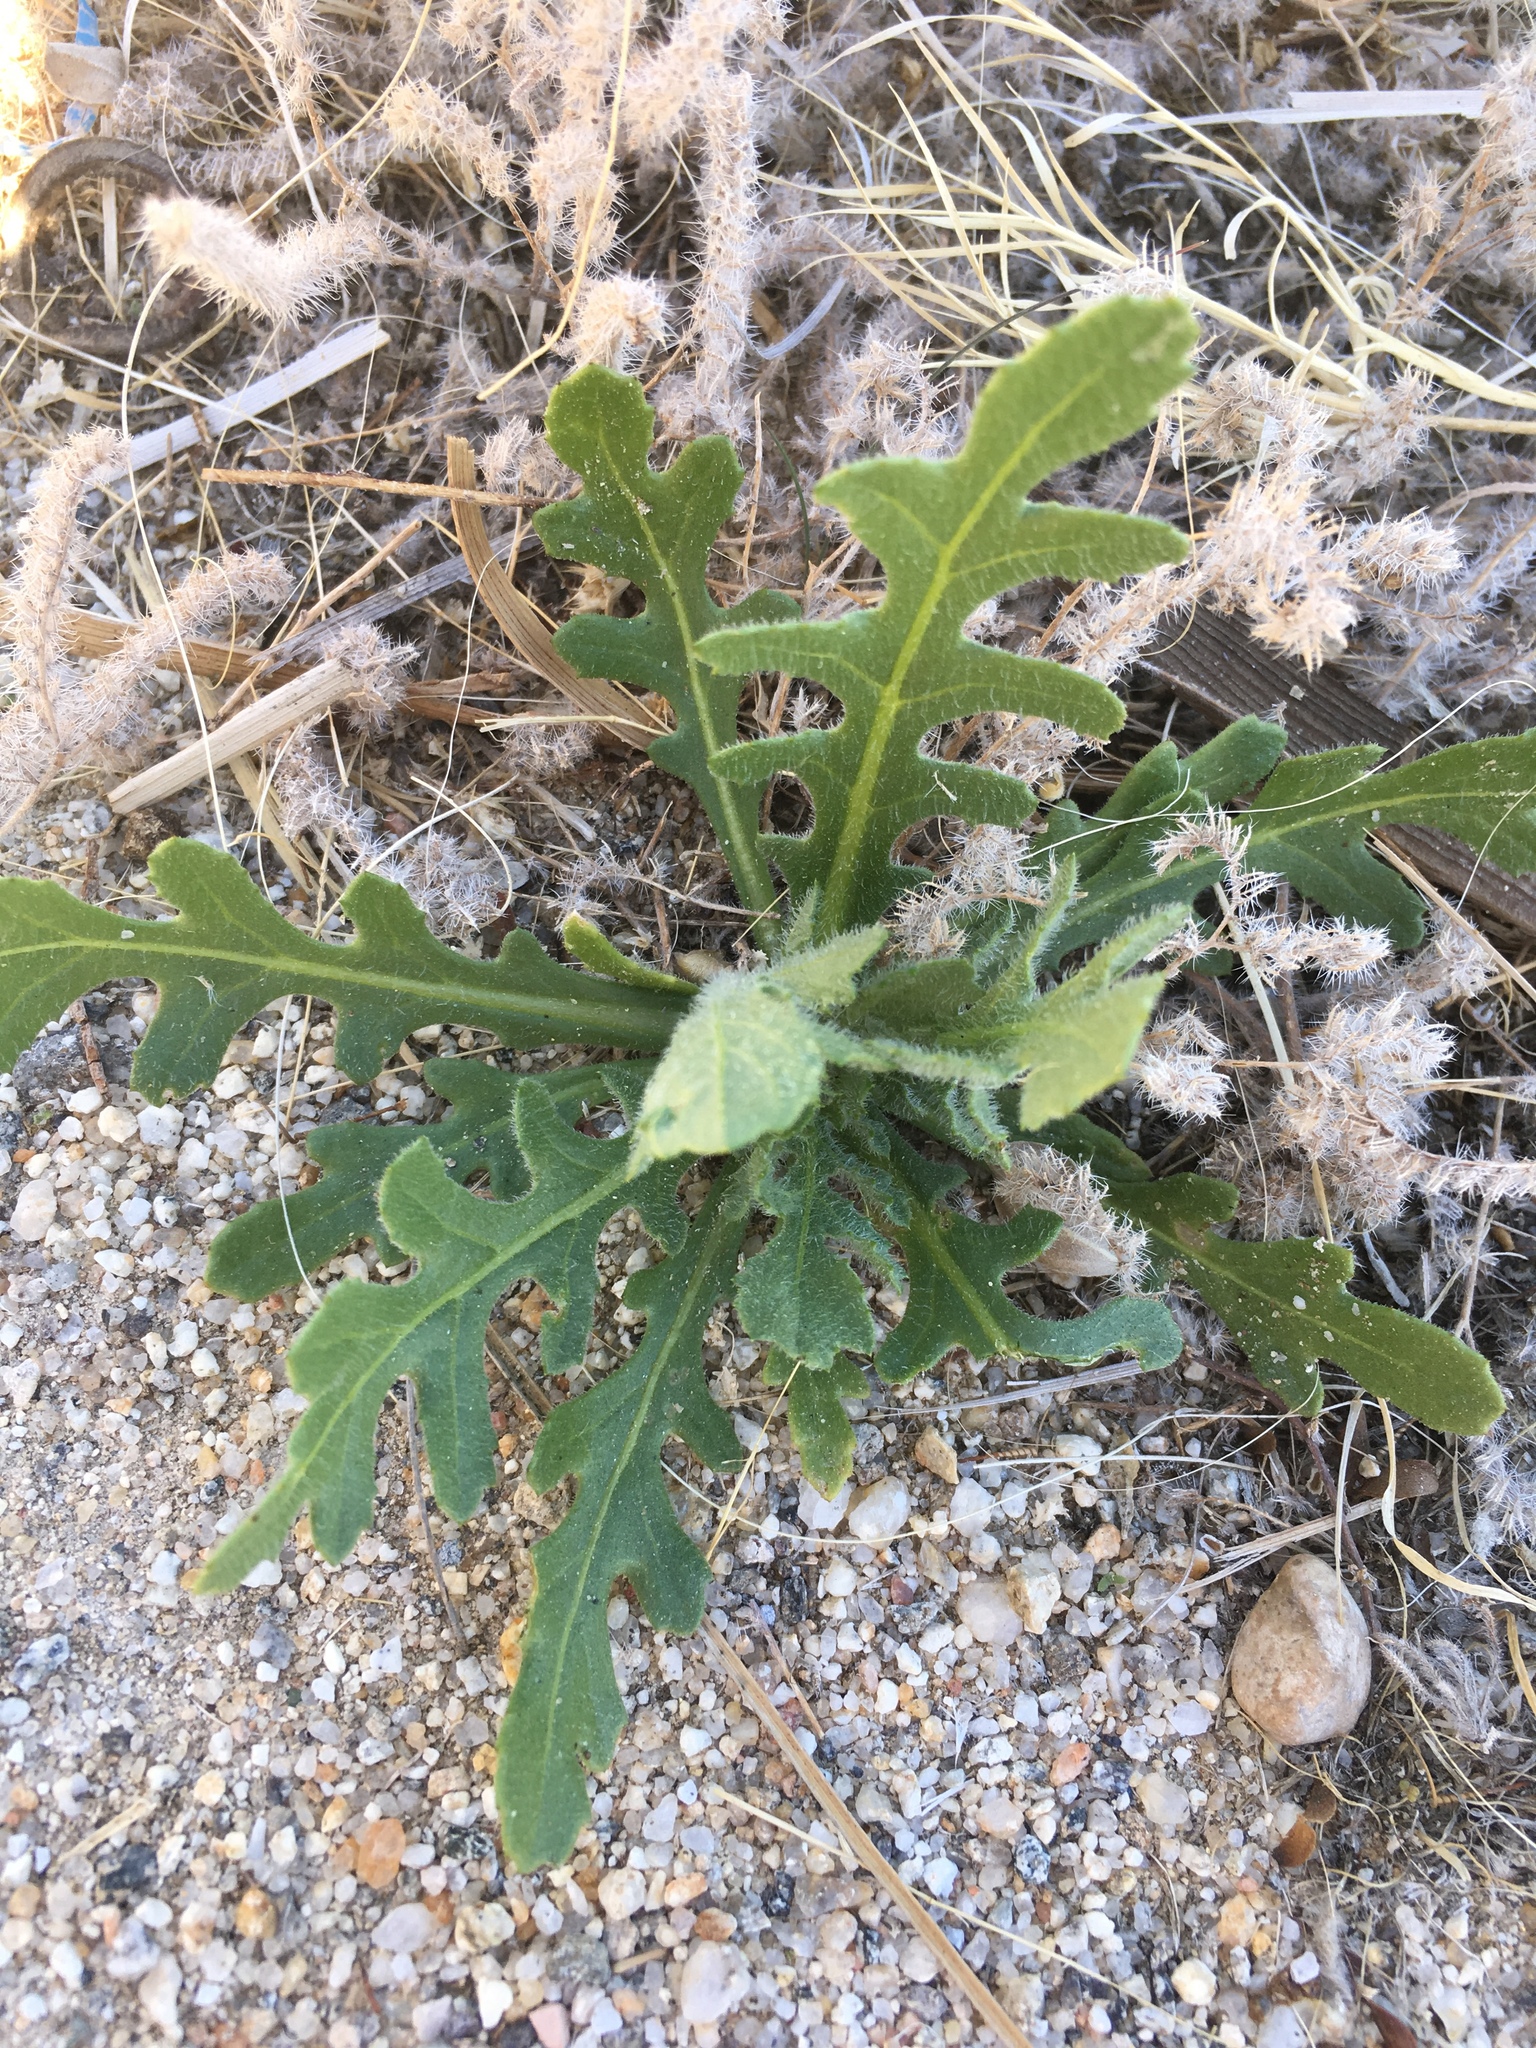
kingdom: Plantae
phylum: Tracheophyta
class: Magnoliopsida
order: Asterales
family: Asteraceae
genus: Volutaria
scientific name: Volutaria tubuliflora
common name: Desert knapweed
